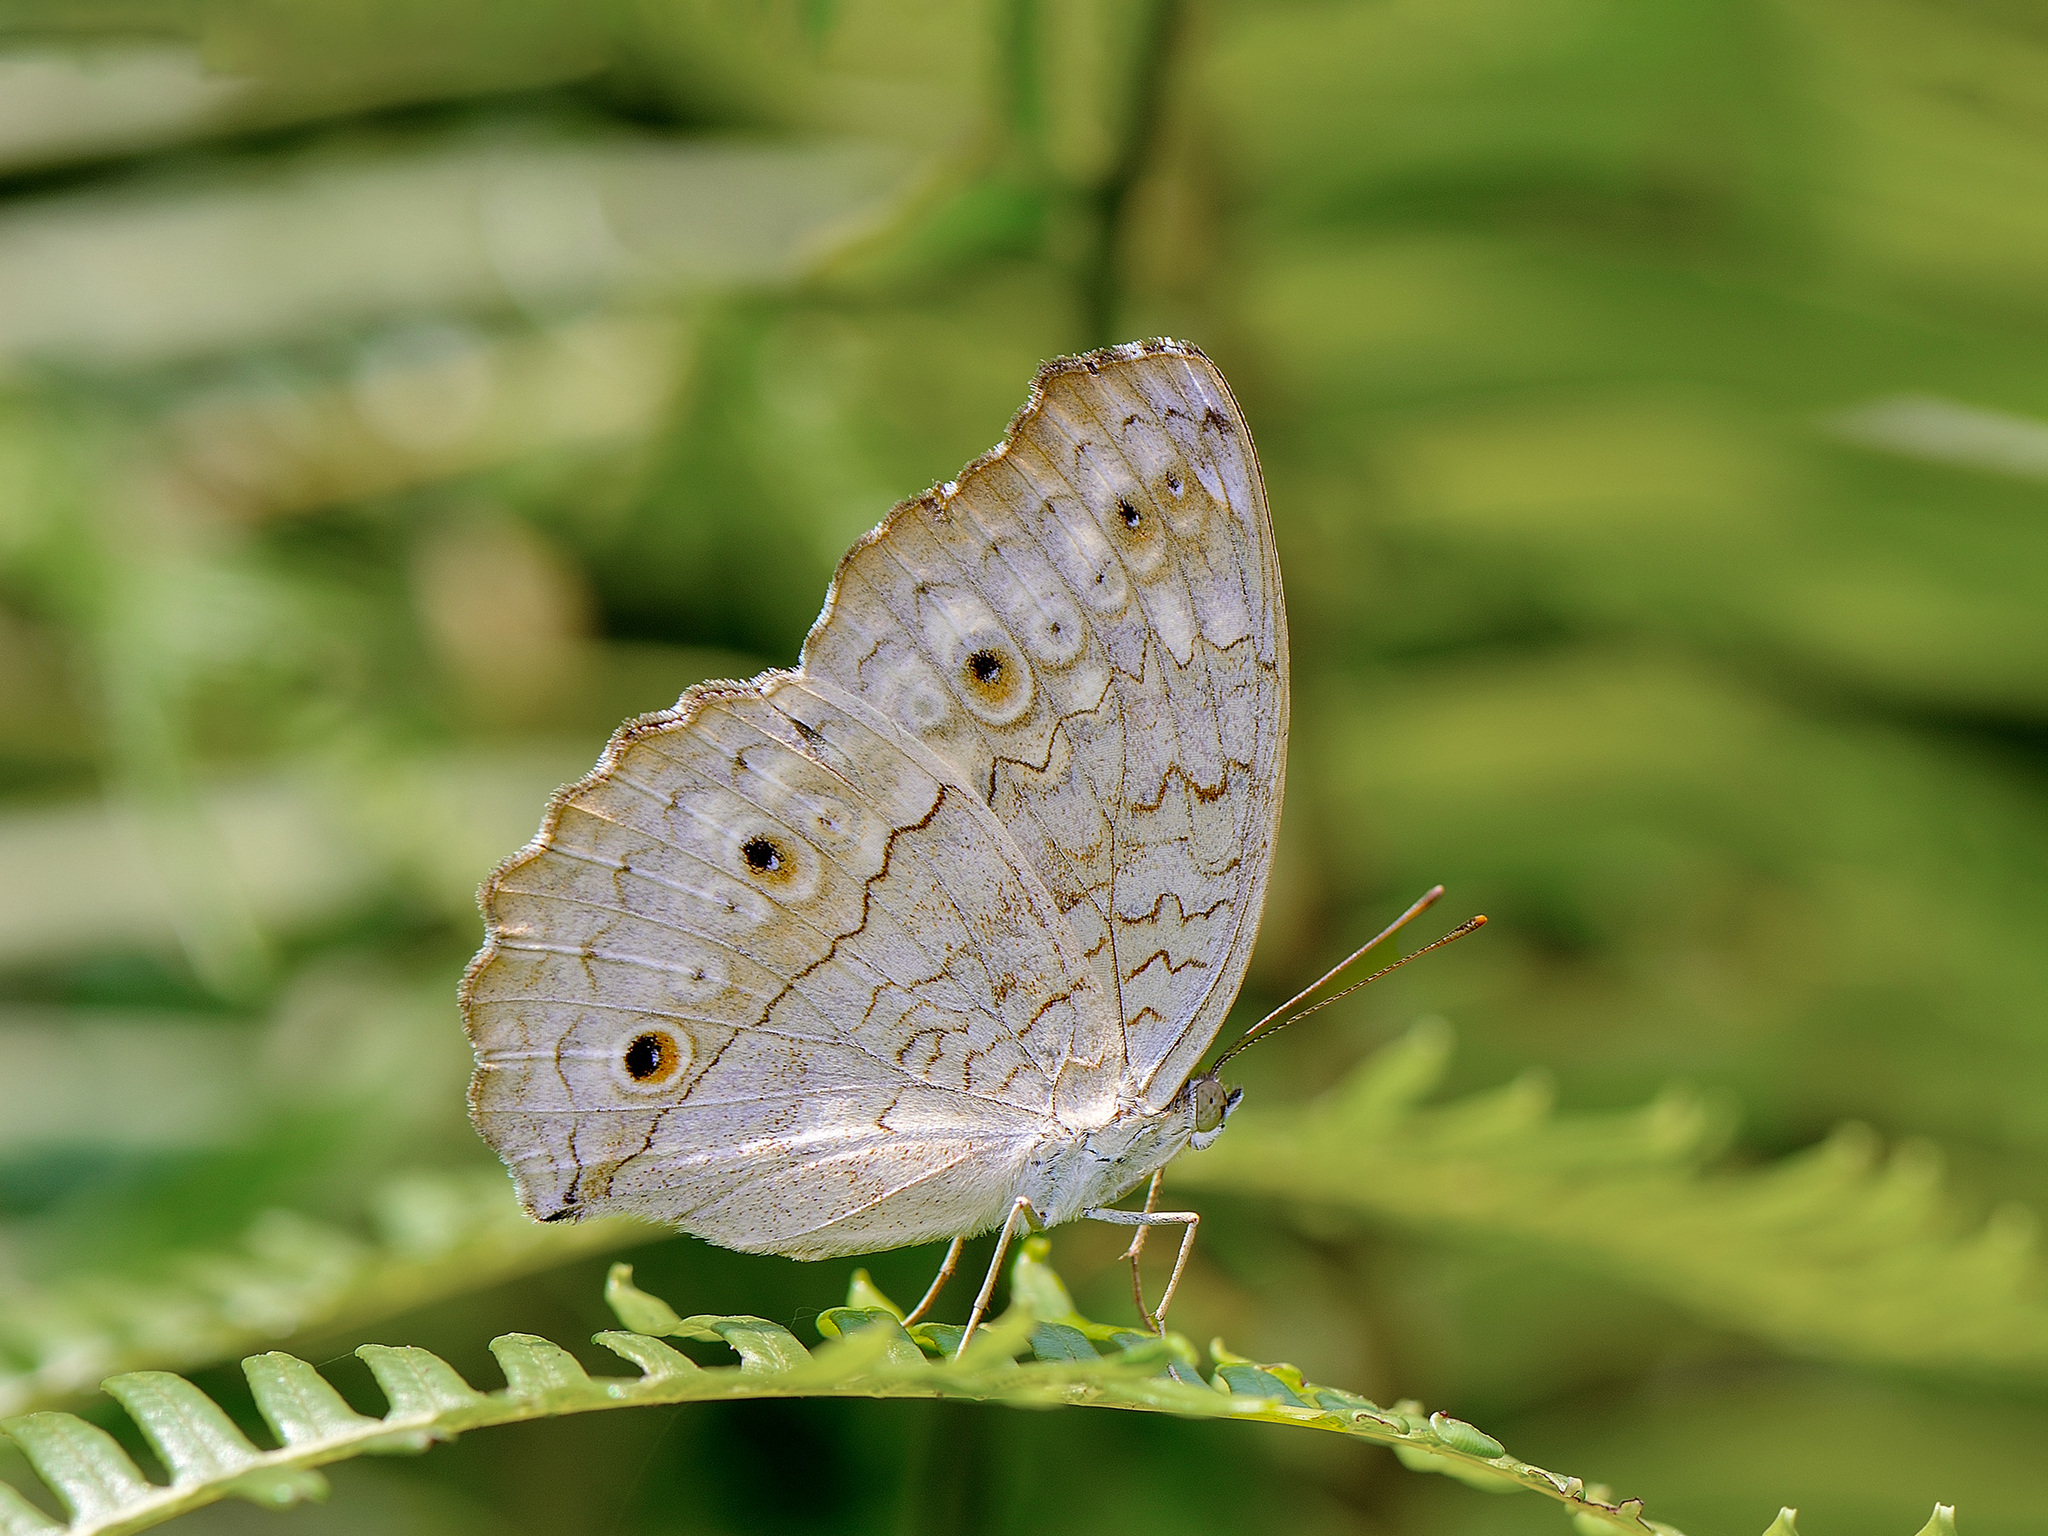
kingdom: Animalia
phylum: Arthropoda
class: Insecta
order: Lepidoptera
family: Nymphalidae
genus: Junonia
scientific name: Junonia atlites
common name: Grey pansy
